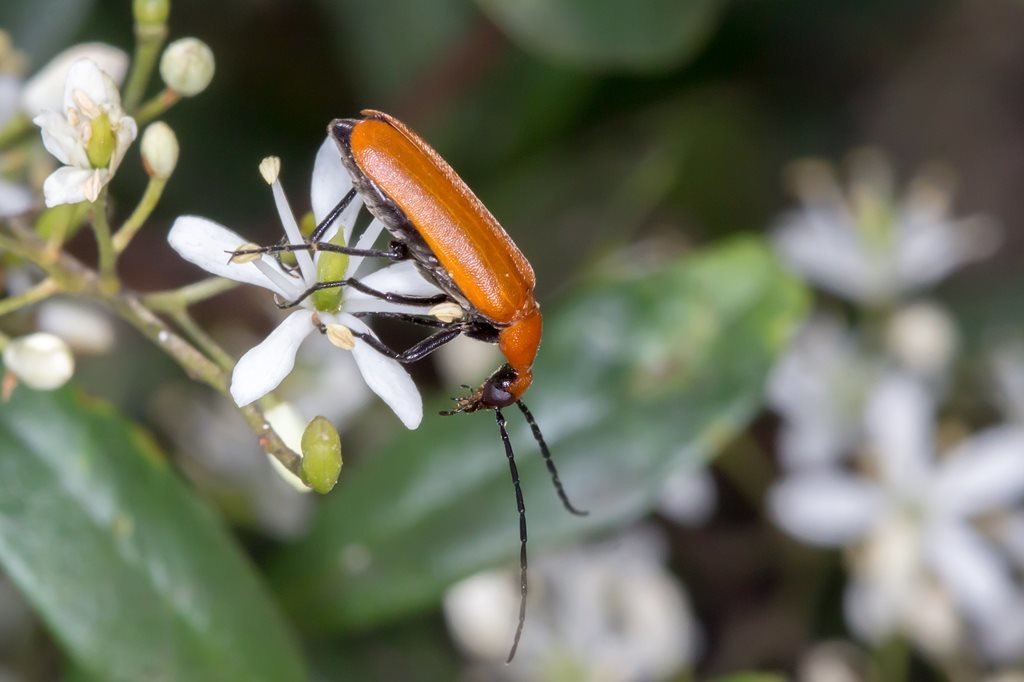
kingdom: Animalia
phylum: Arthropoda
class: Insecta
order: Coleoptera
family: Meloidae
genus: Australozonitis
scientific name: Australozonitis
